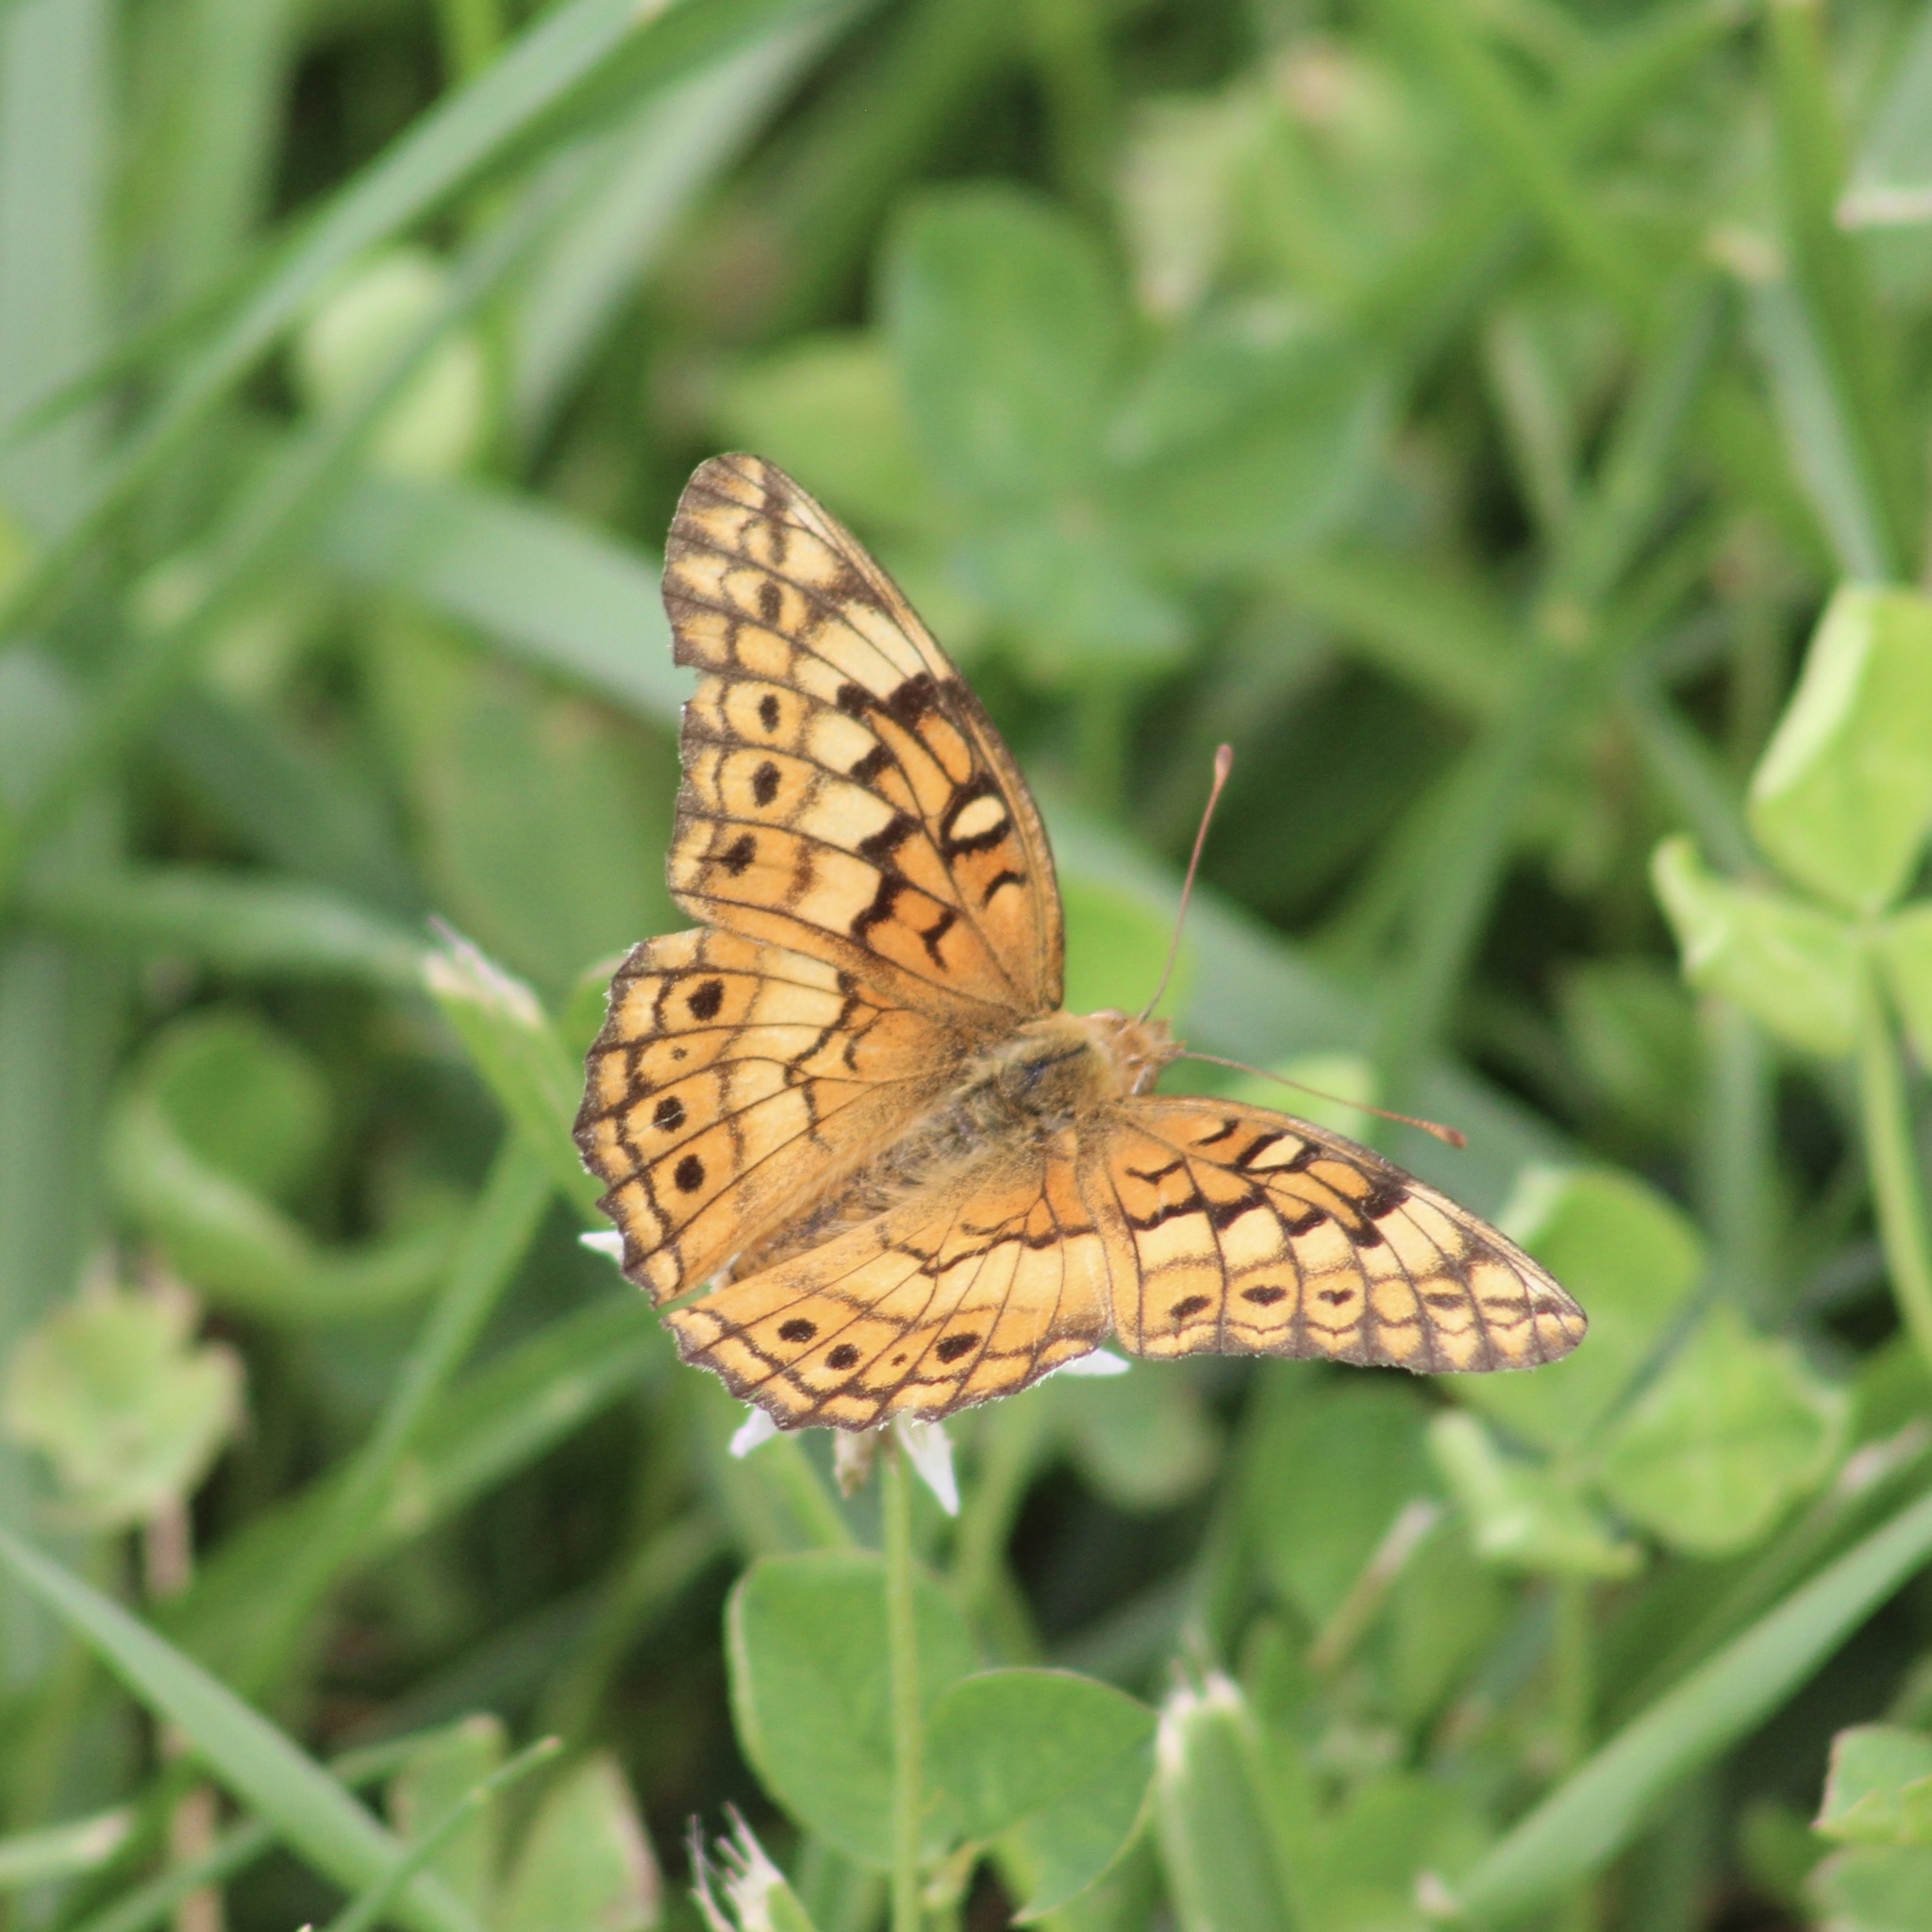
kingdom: Animalia
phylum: Arthropoda
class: Insecta
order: Lepidoptera
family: Nymphalidae
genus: Euptoieta
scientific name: Euptoieta claudia
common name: Variegated fritillary
